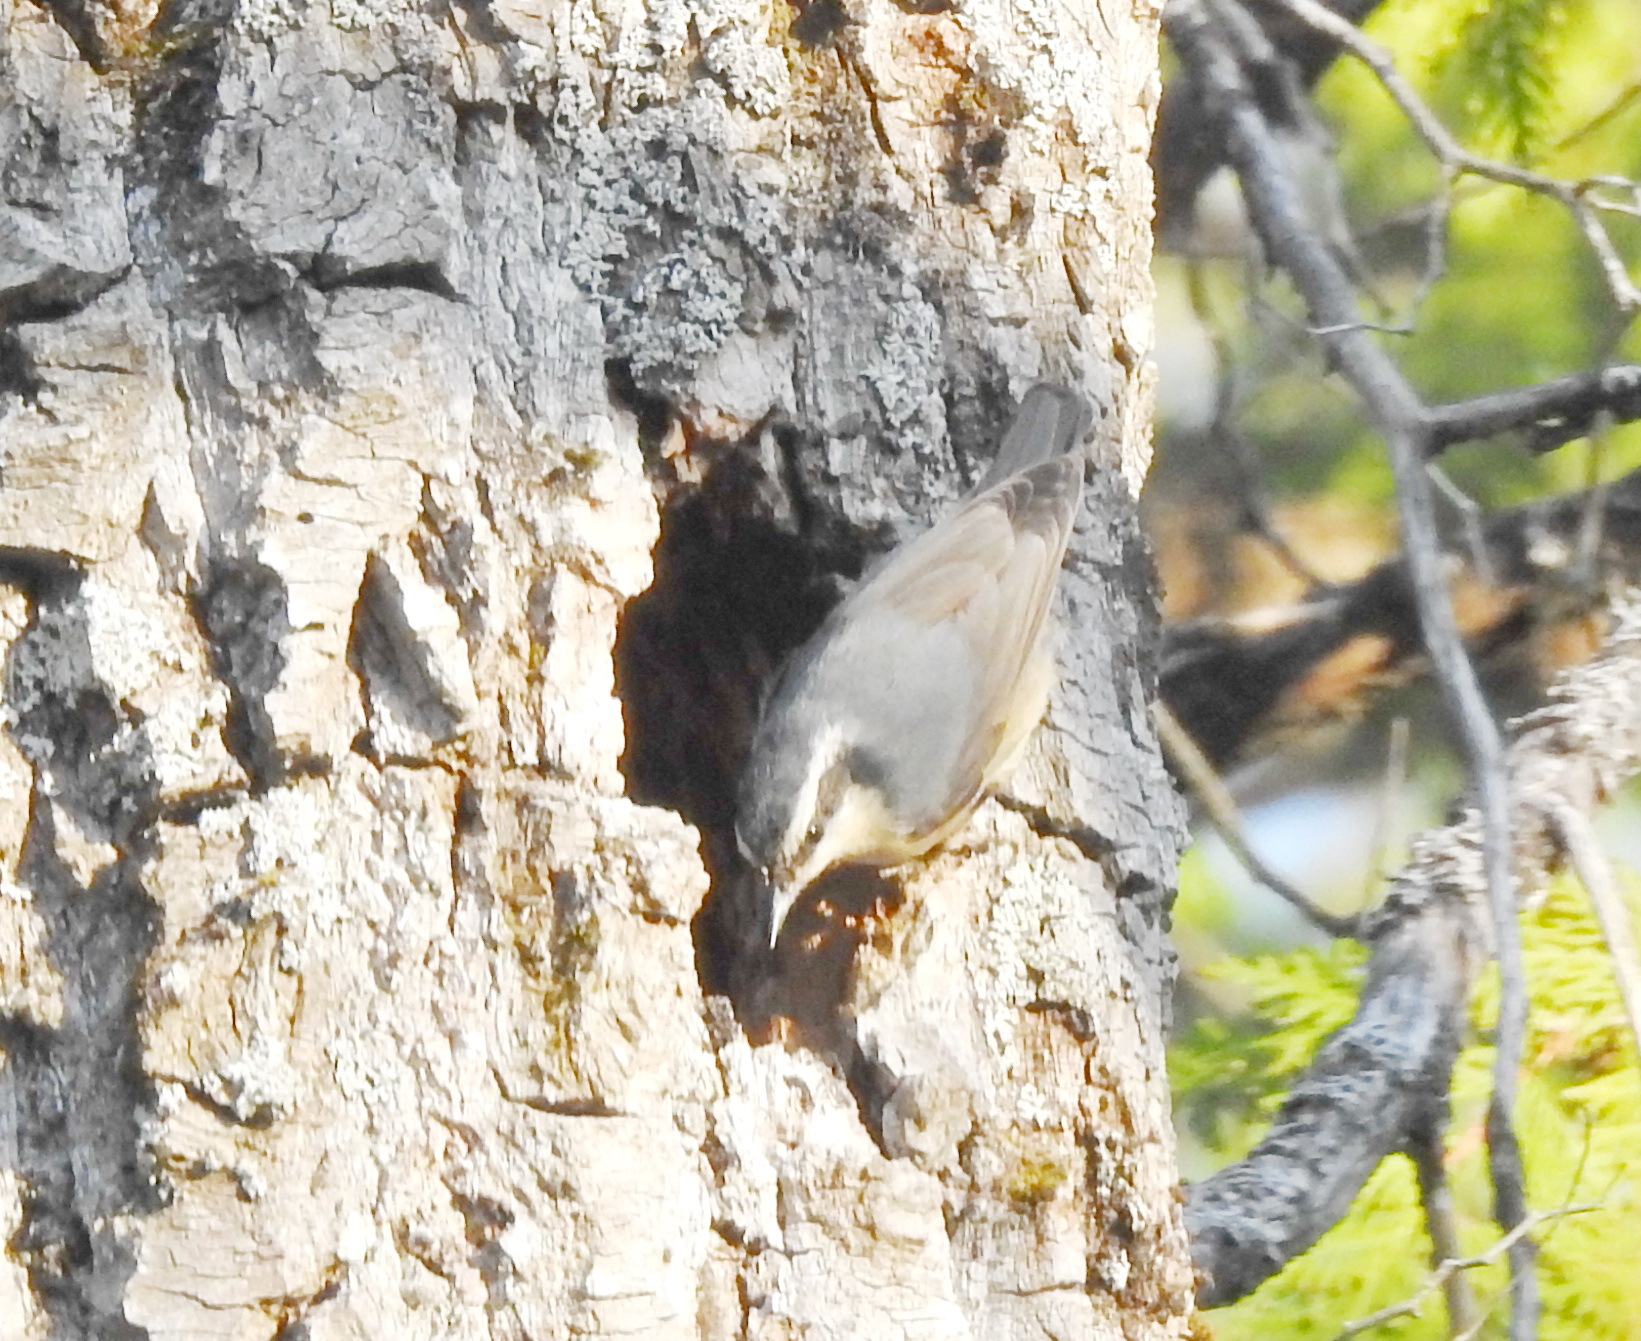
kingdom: Animalia
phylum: Chordata
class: Aves
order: Passeriformes
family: Sittidae
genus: Sitta
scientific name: Sitta canadensis
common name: Red-breasted nuthatch
